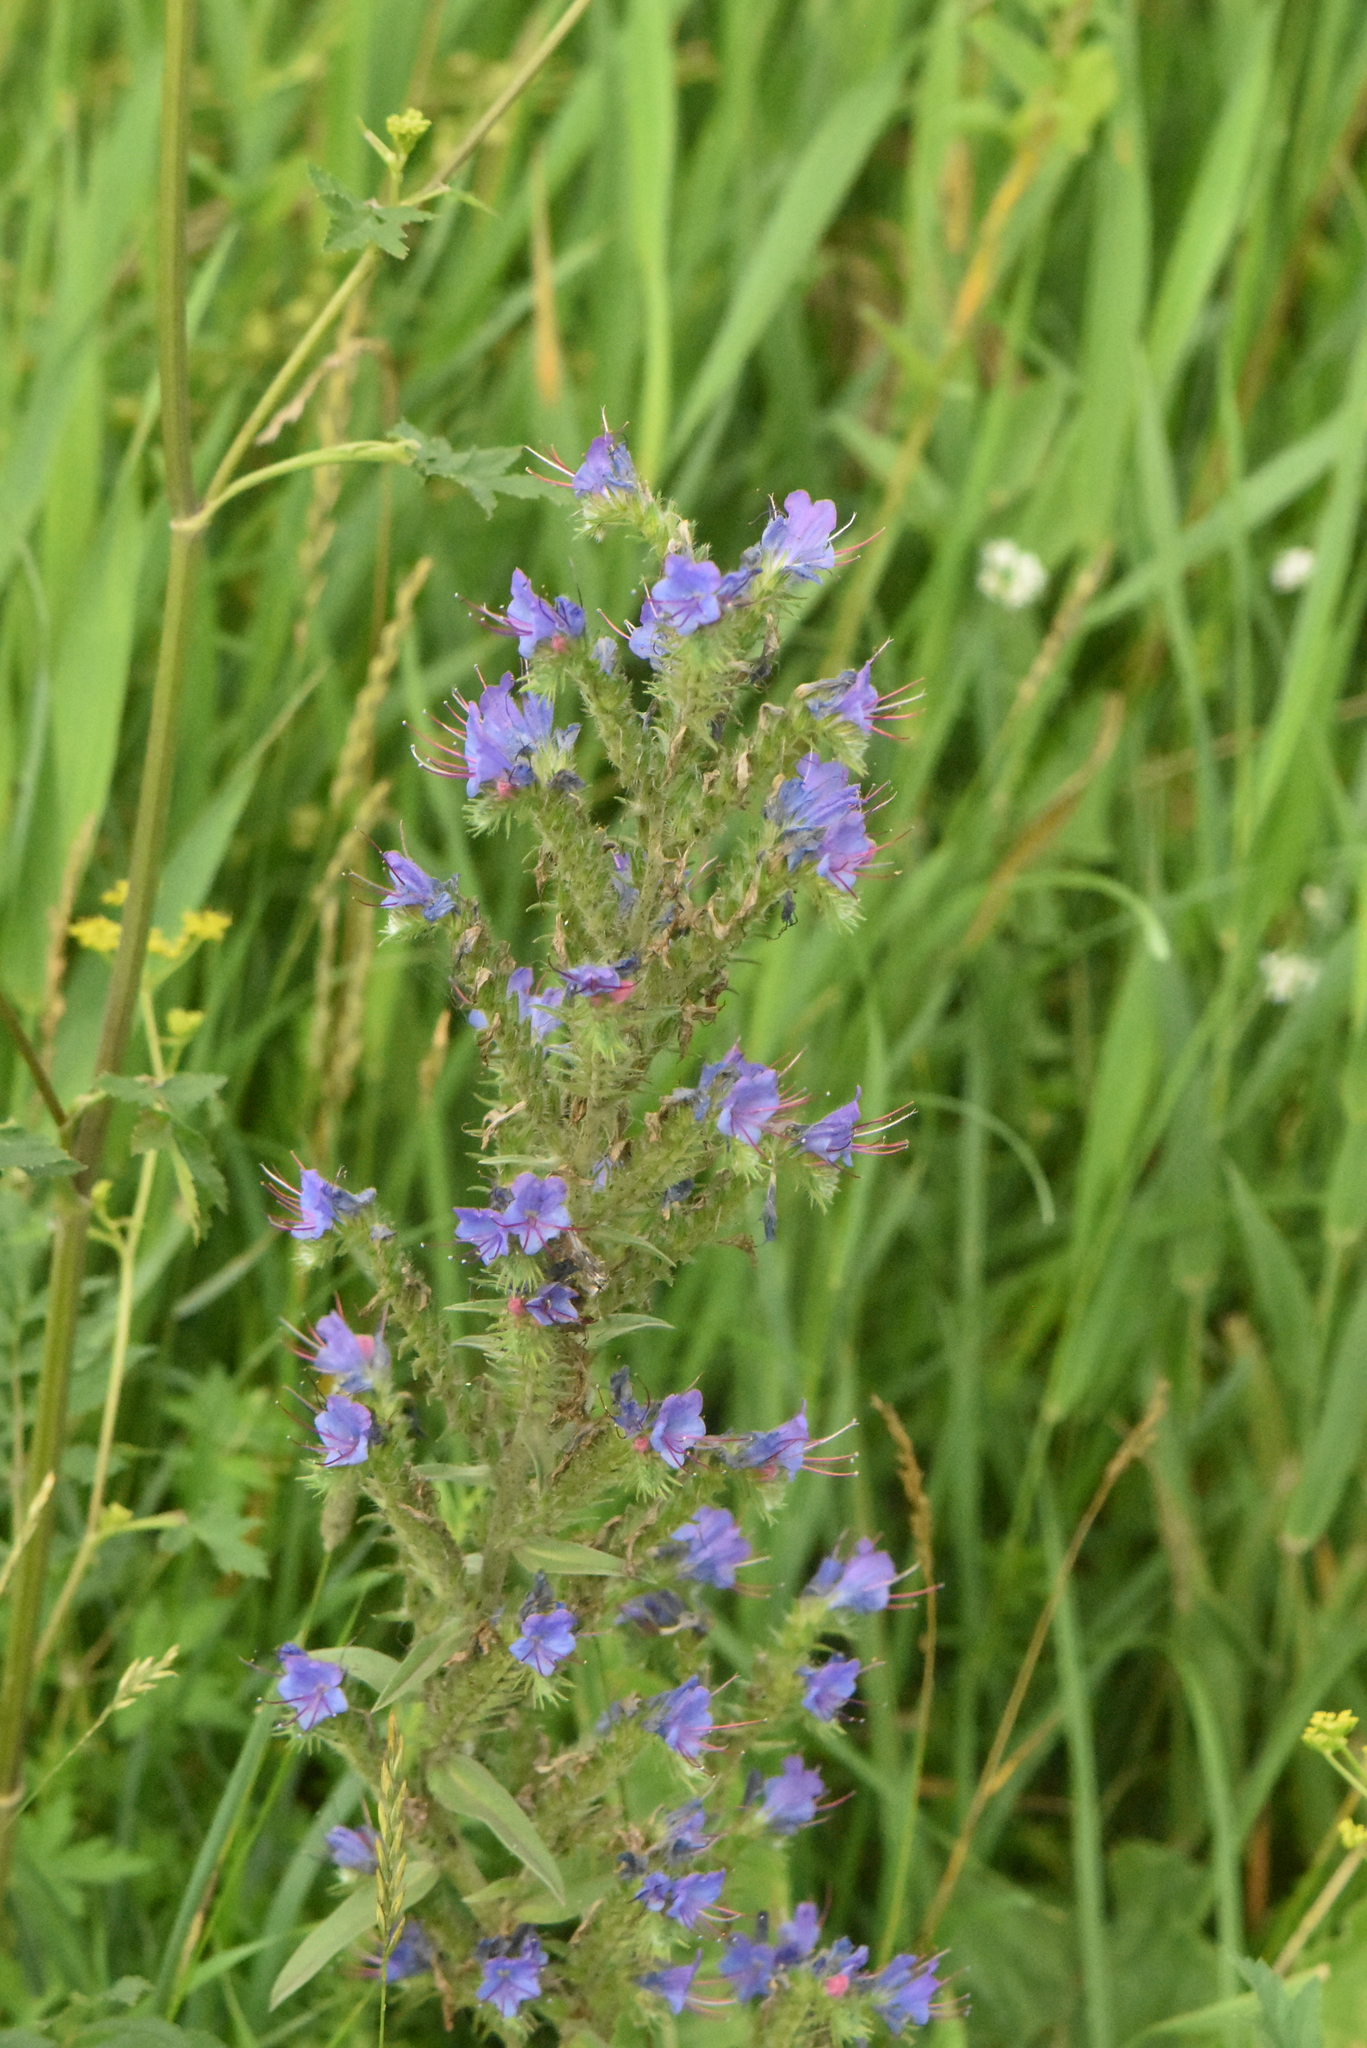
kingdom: Plantae
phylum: Tracheophyta
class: Magnoliopsida
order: Boraginales
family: Boraginaceae
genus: Echium
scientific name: Echium vulgare
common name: Common viper's bugloss
